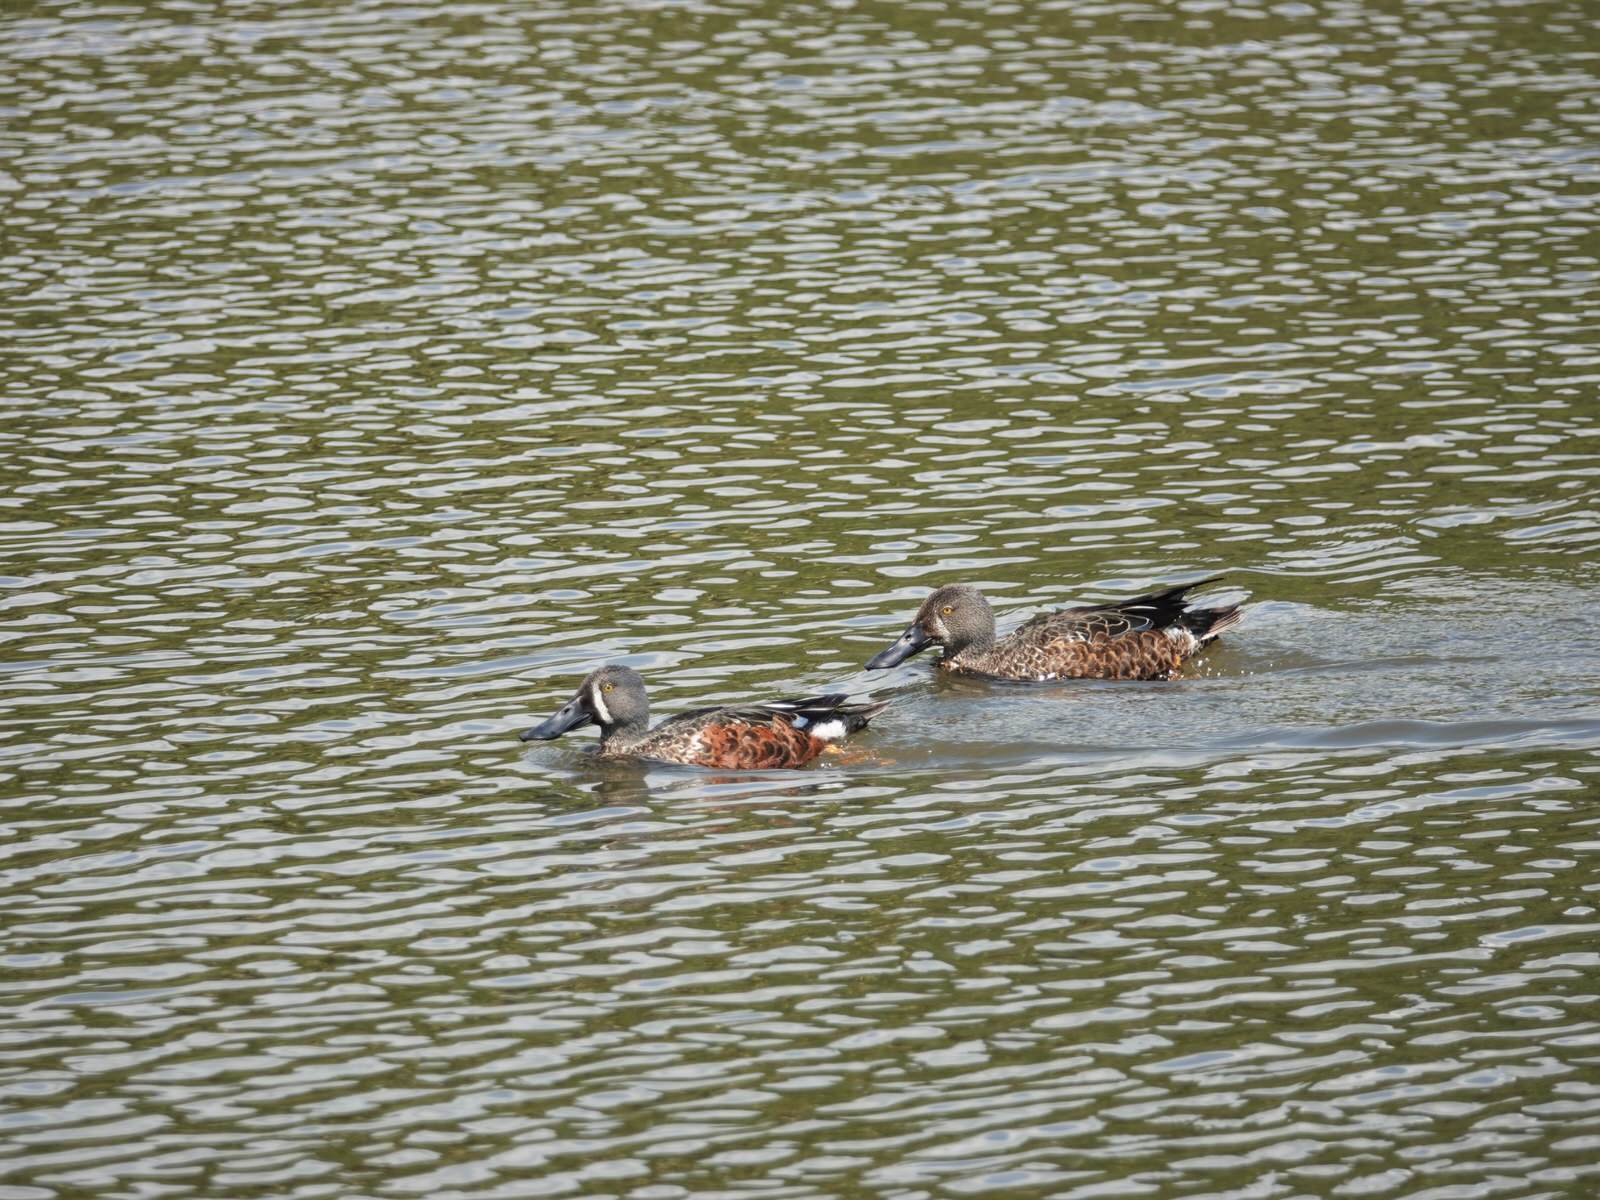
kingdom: Animalia
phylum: Chordata
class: Aves
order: Anseriformes
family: Anatidae
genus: Spatula
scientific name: Spatula rhynchotis
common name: Australian shoveler
